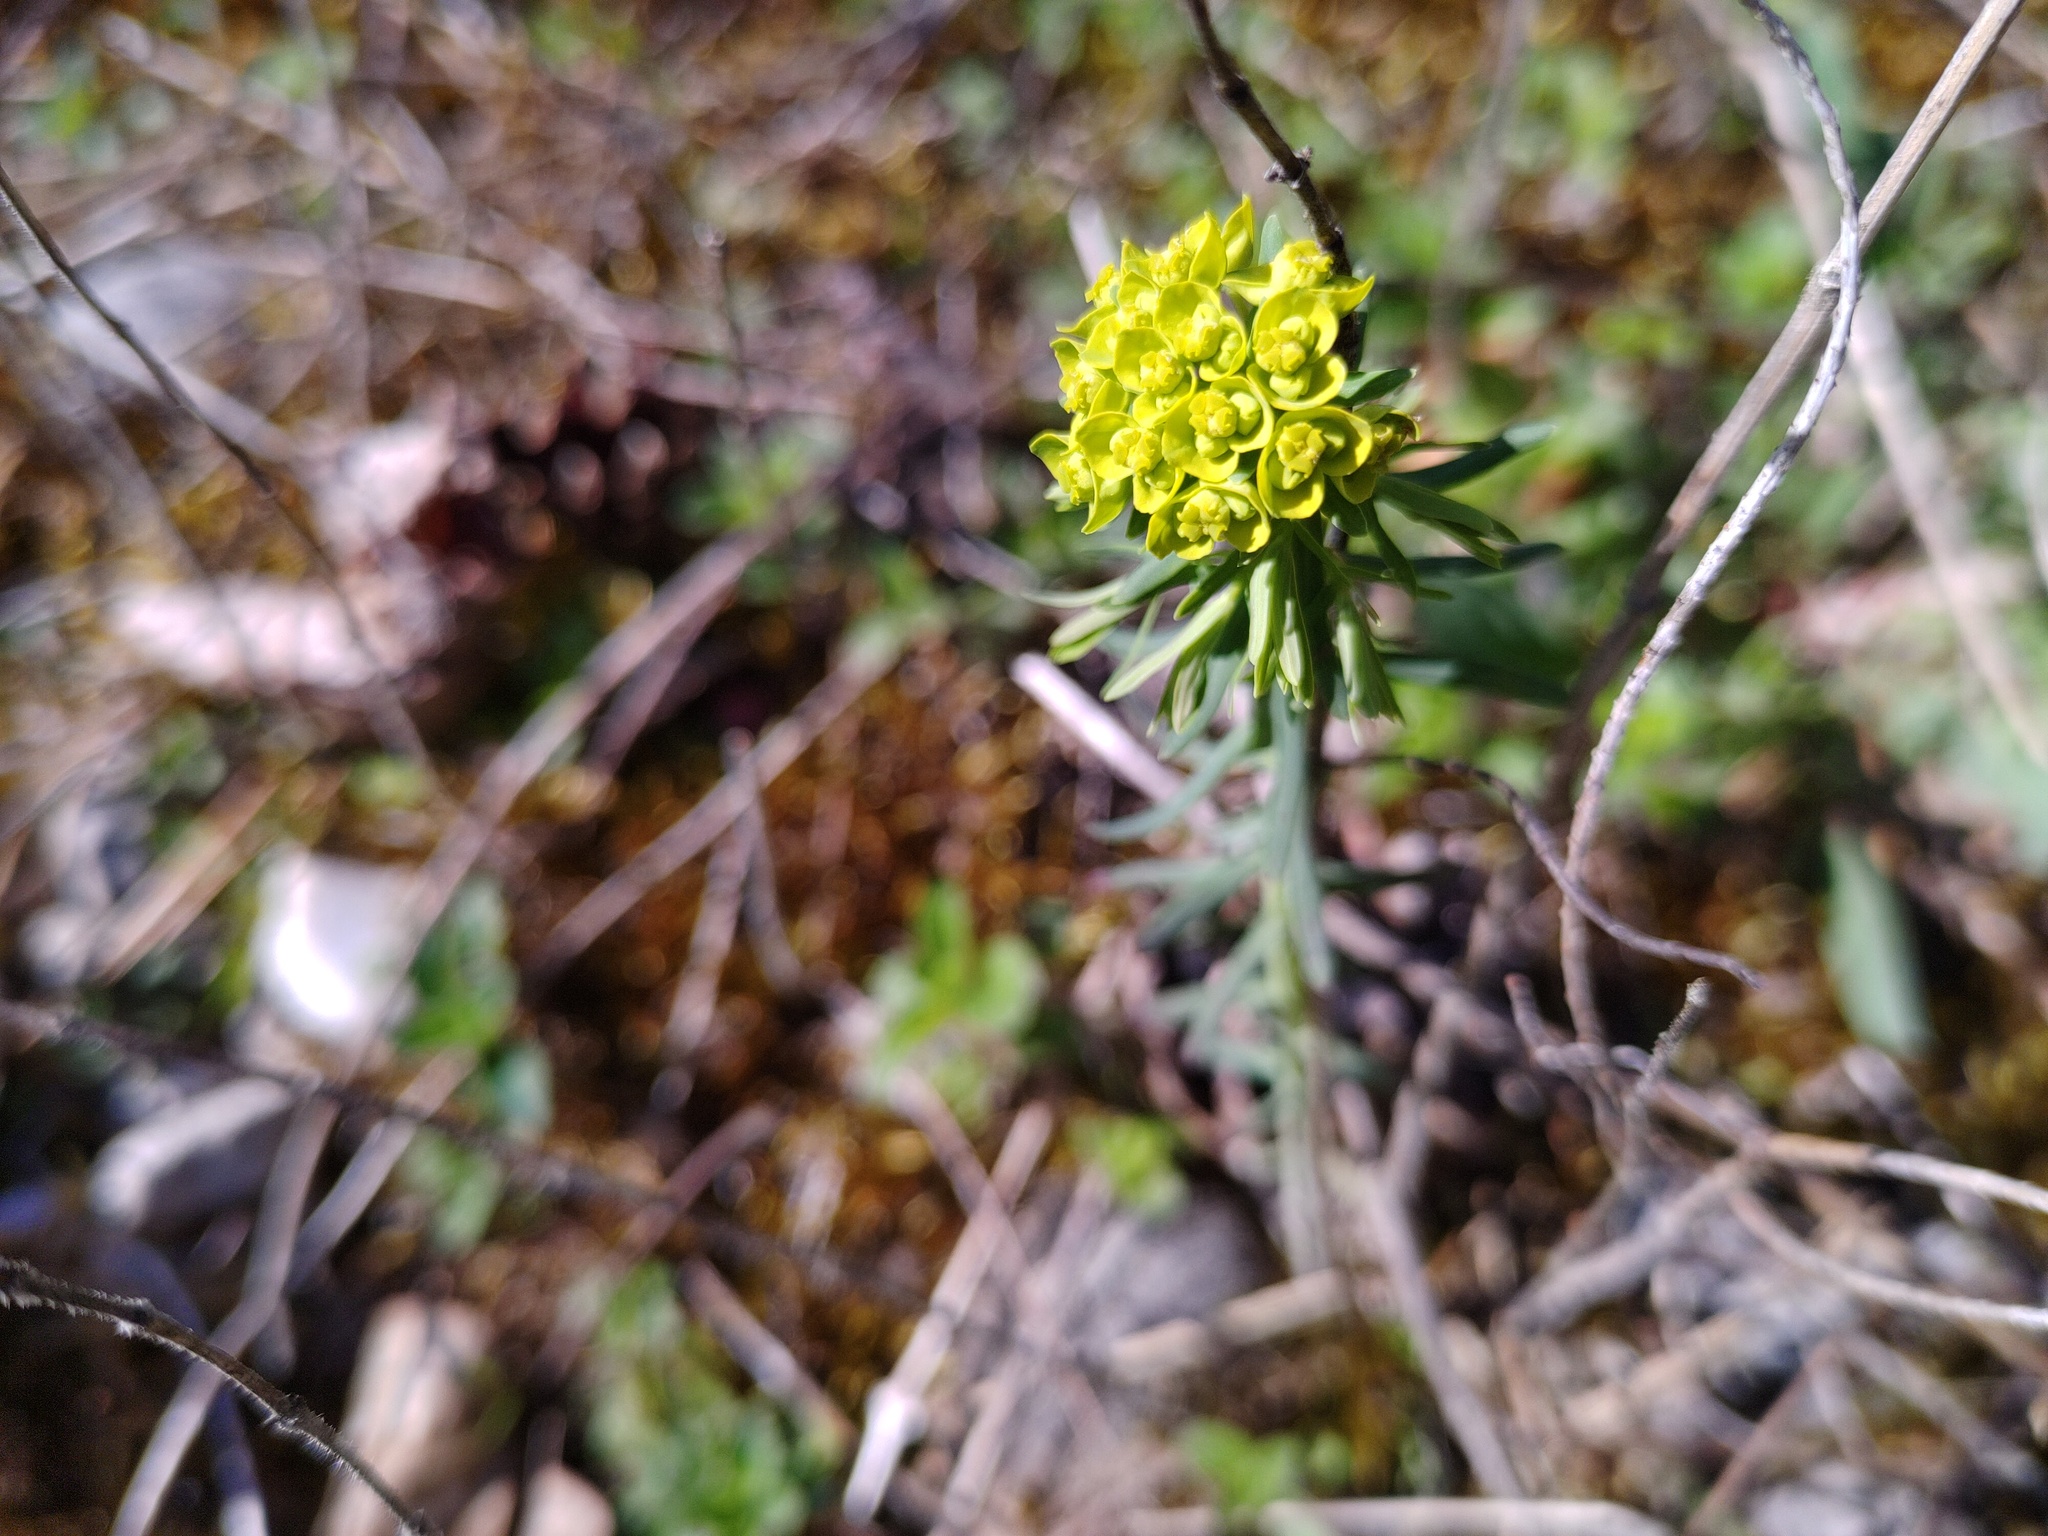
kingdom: Plantae
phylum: Tracheophyta
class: Magnoliopsida
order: Malpighiales
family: Euphorbiaceae
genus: Euphorbia
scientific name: Euphorbia cyparissias
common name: Cypress spurge
